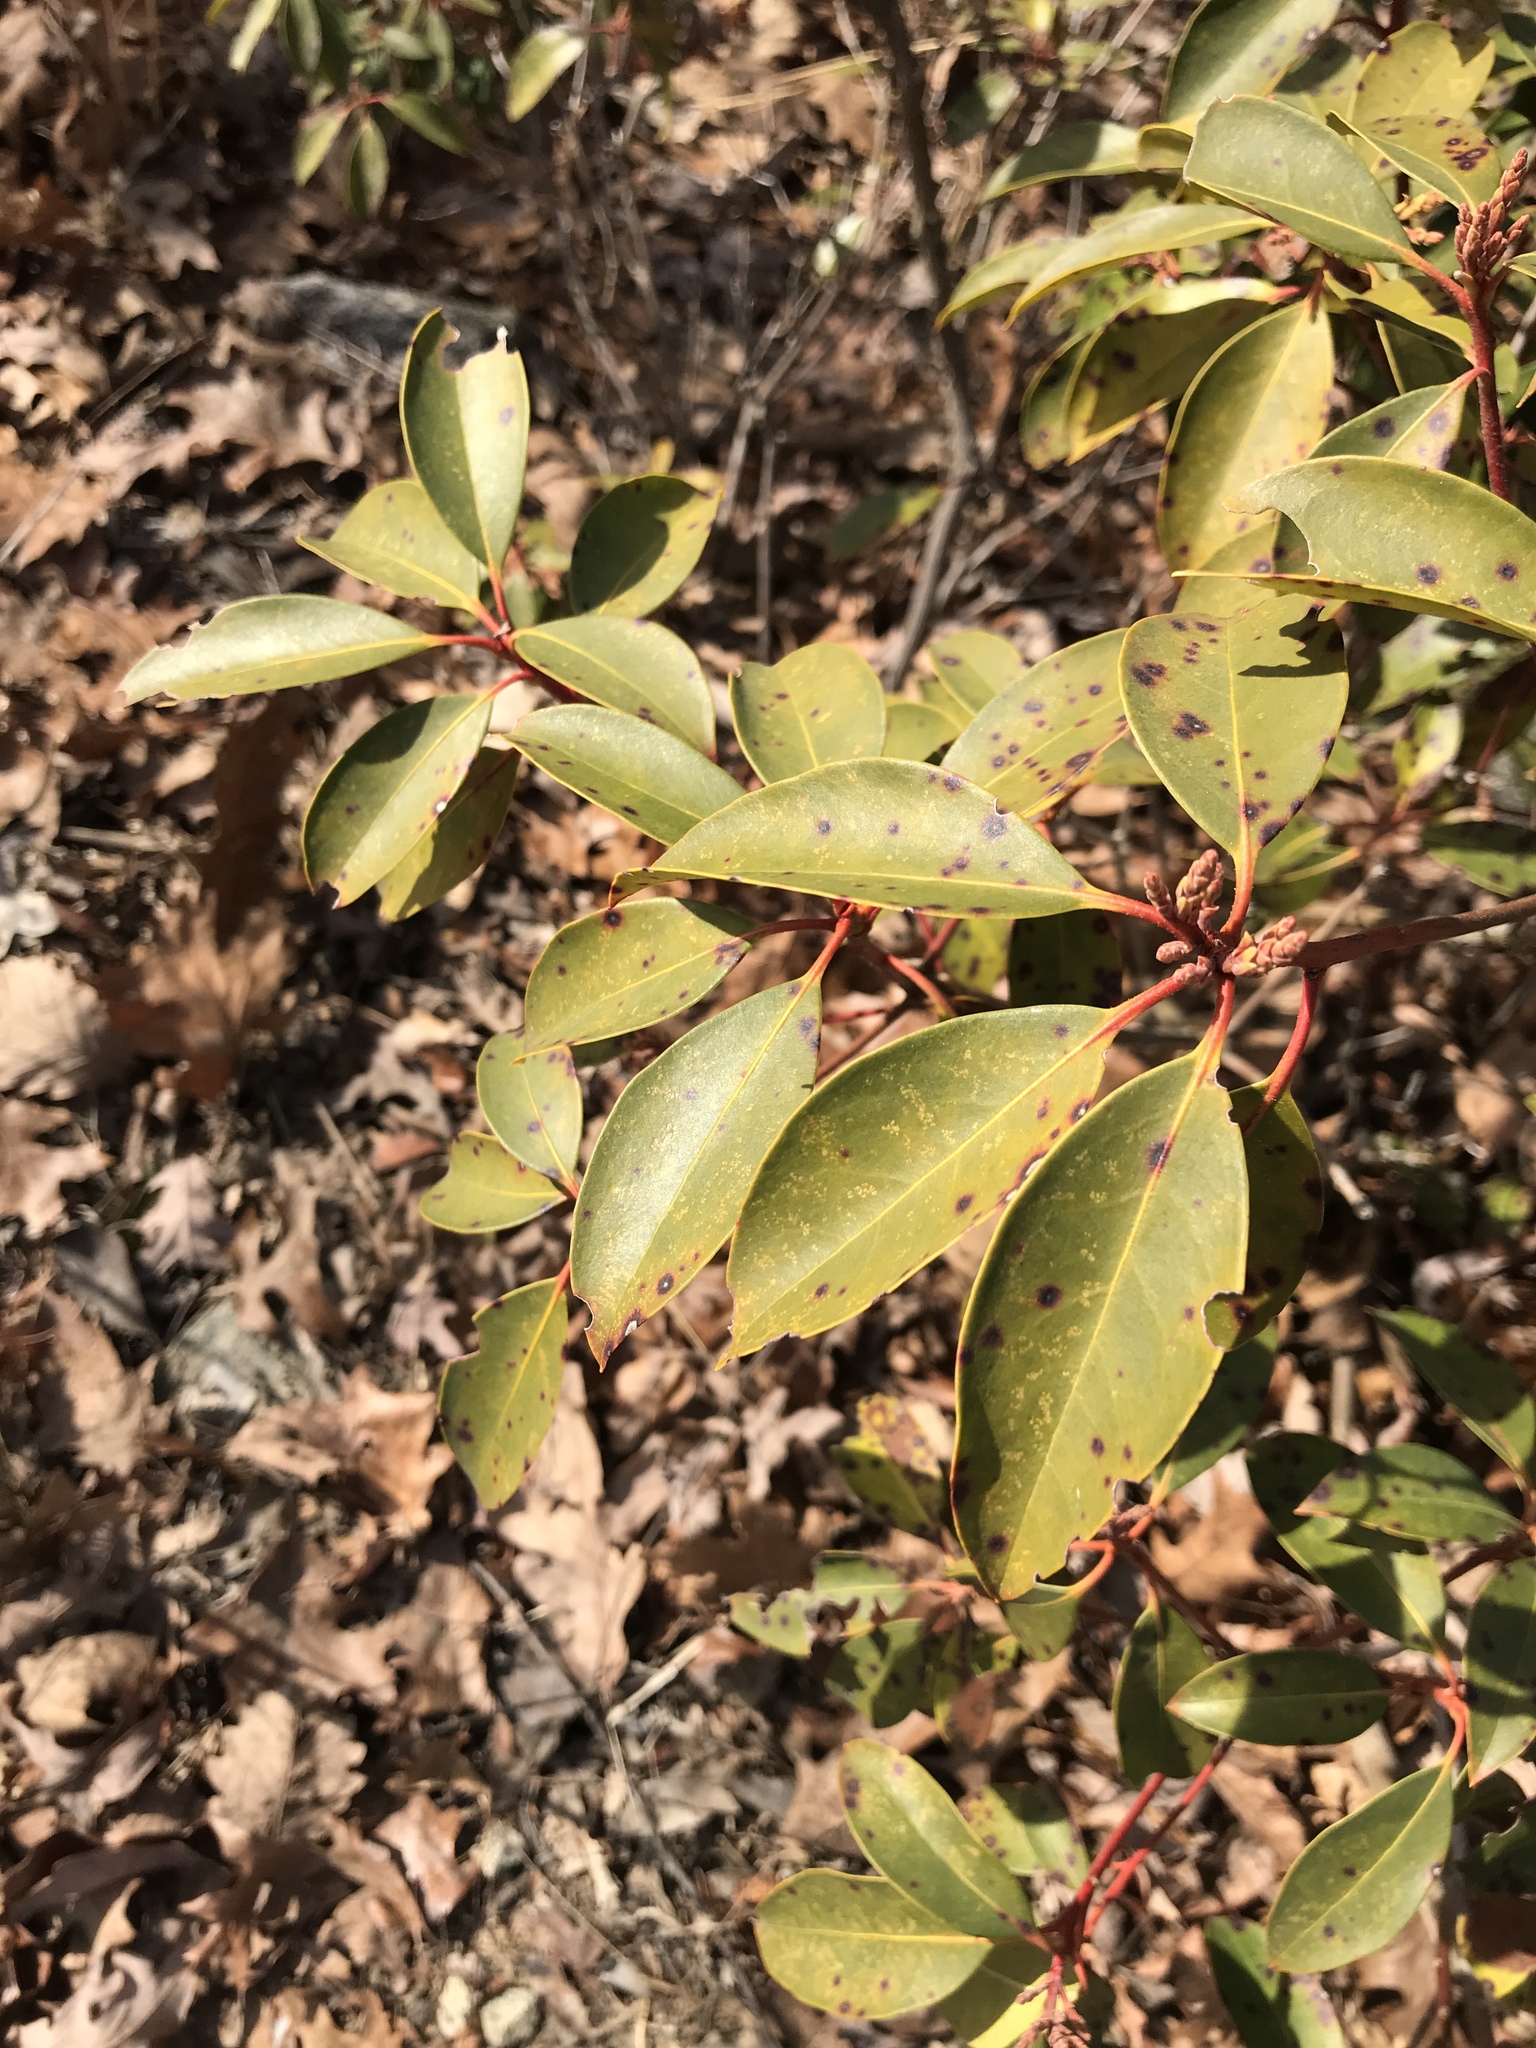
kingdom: Plantae
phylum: Tracheophyta
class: Magnoliopsida
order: Ericales
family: Ericaceae
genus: Kalmia
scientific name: Kalmia latifolia
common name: Mountain-laurel
